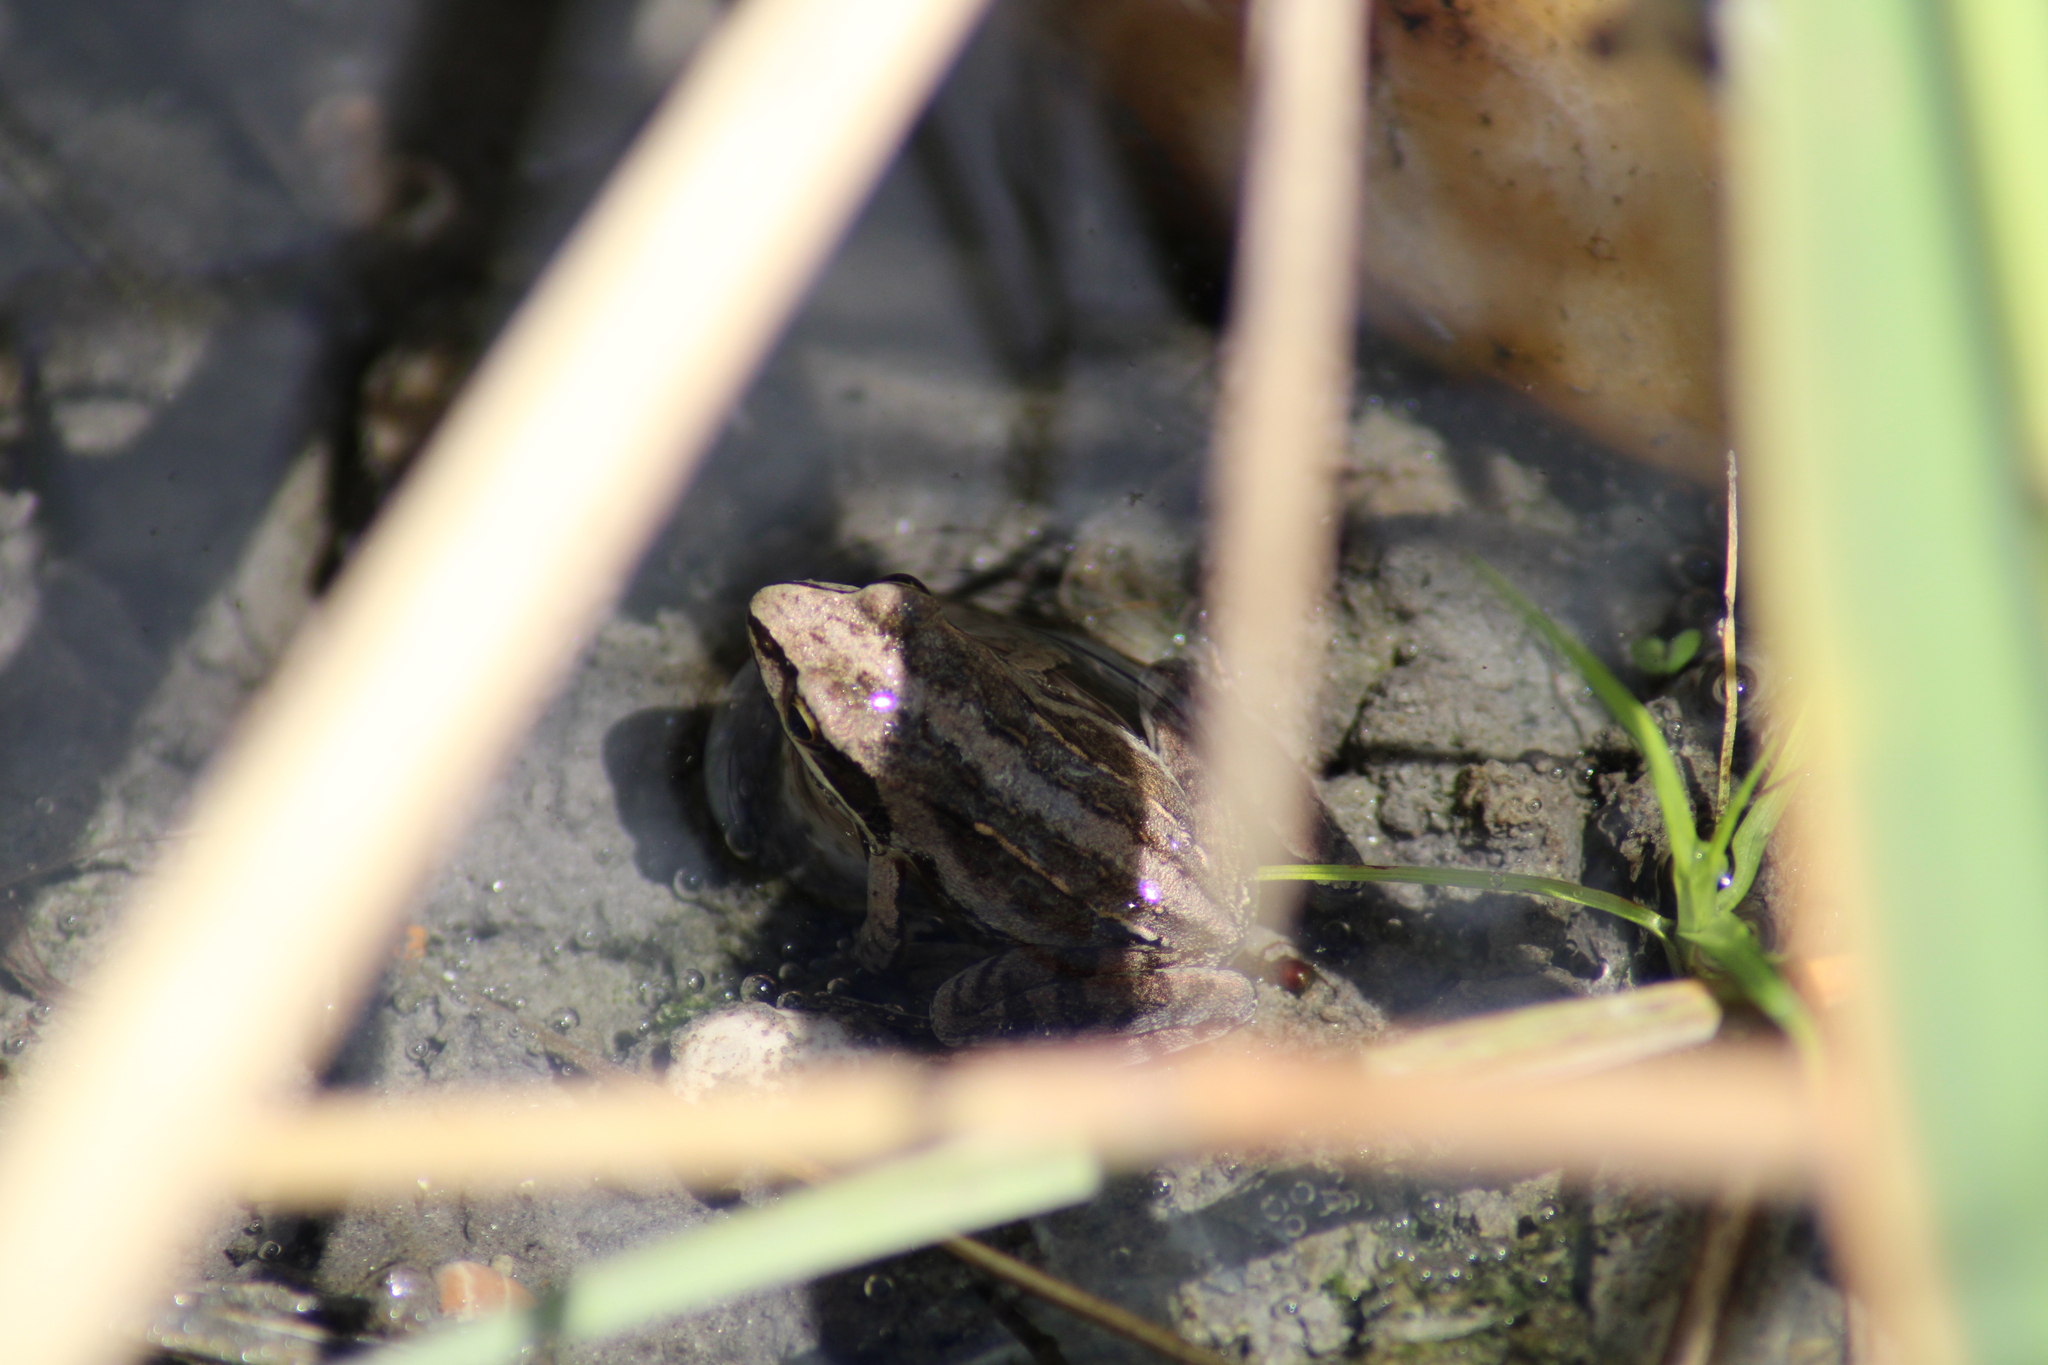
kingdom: Animalia
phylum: Chordata
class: Amphibia
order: Anura
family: Ranidae
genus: Rana
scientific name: Rana arvalis
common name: Moor frog
